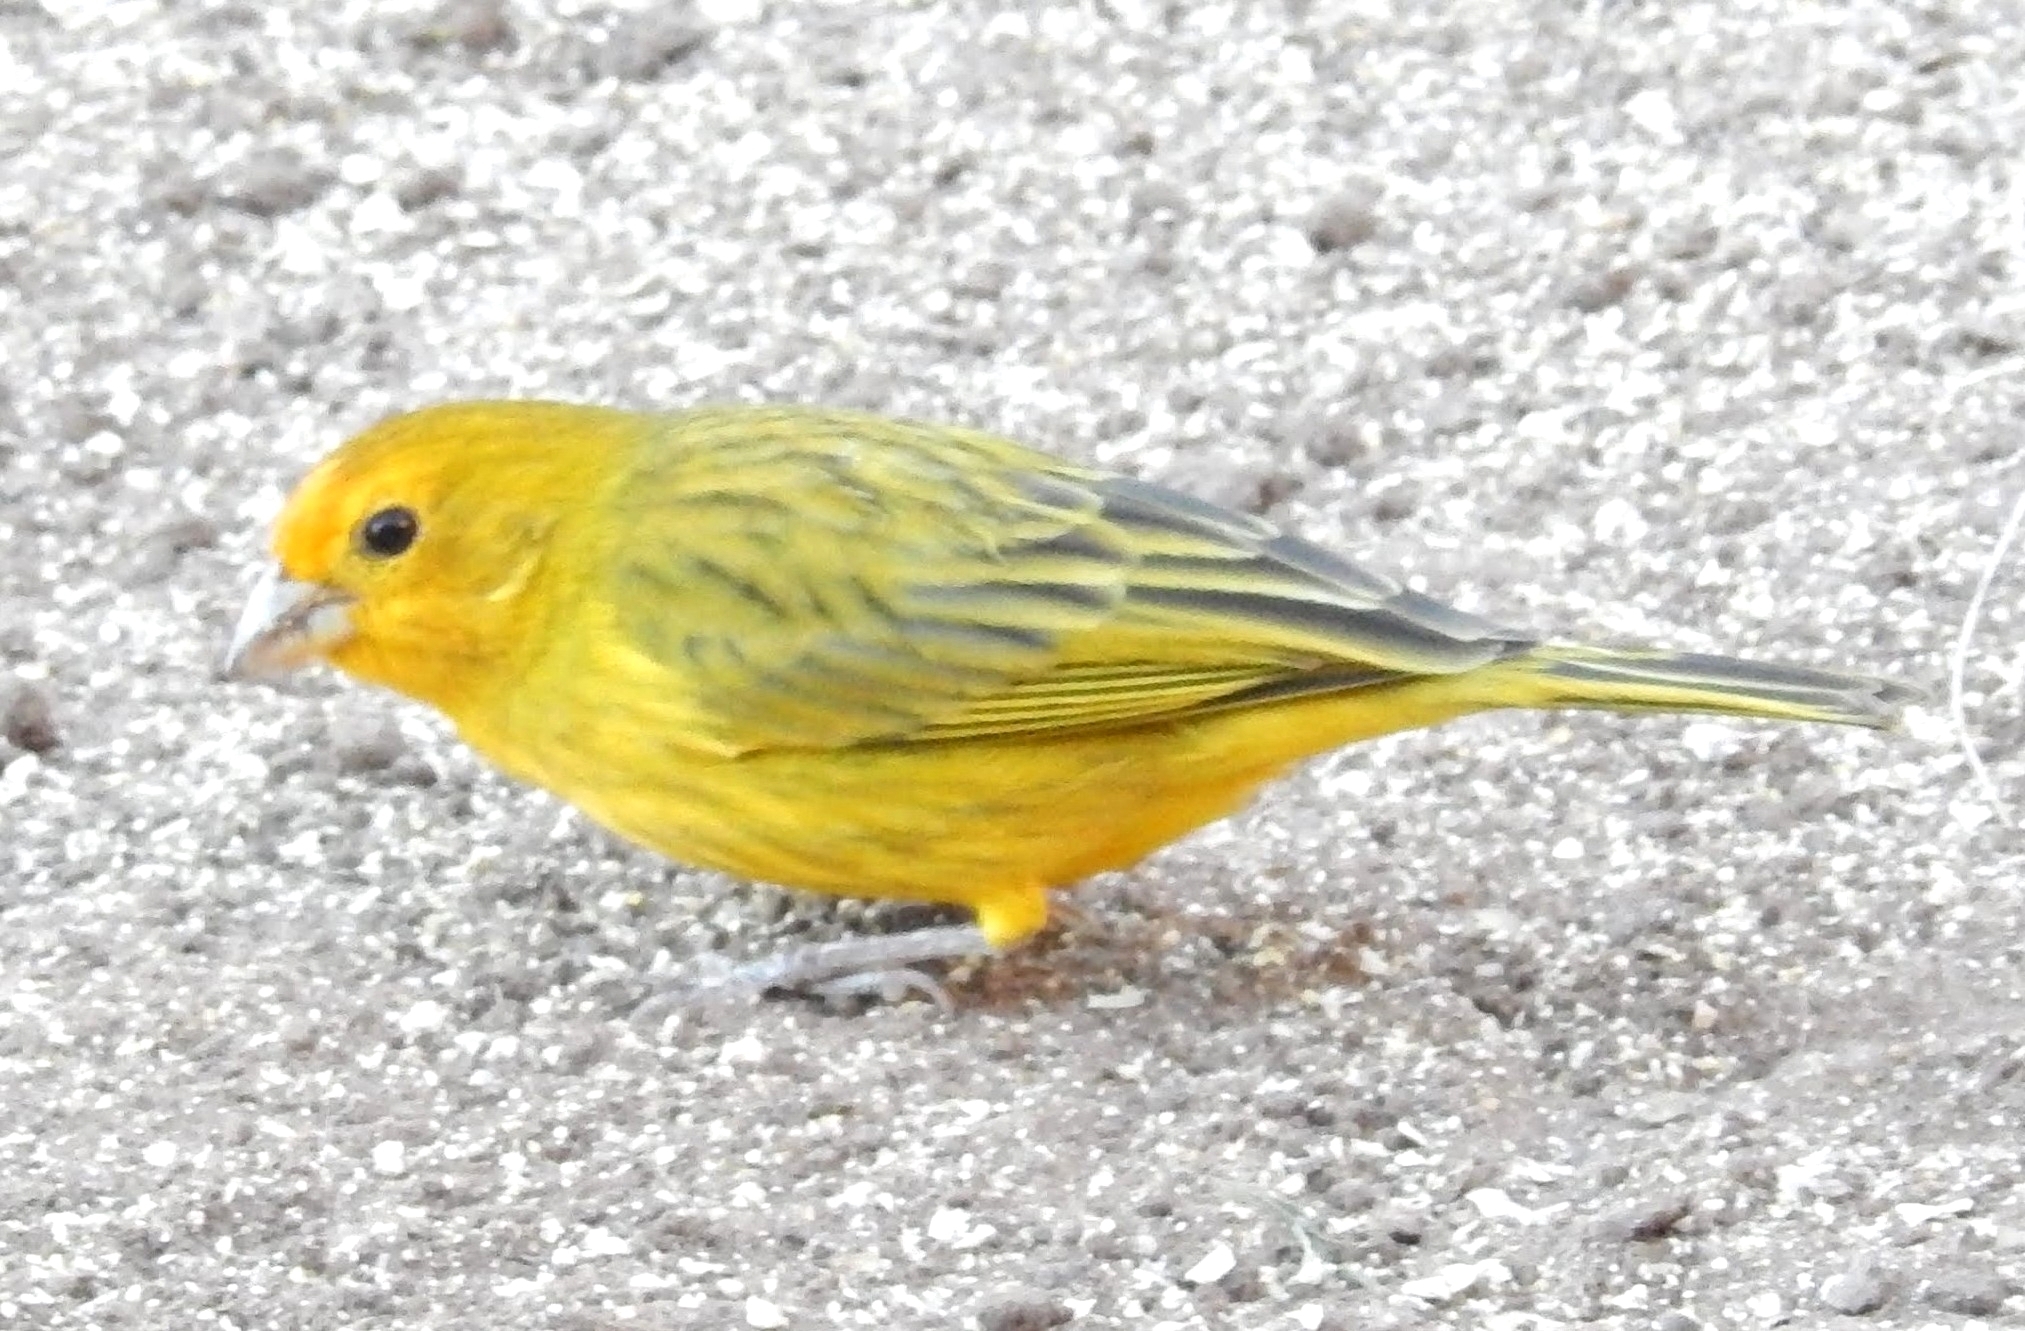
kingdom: Animalia
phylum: Chordata
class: Aves
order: Passeriformes
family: Thraupidae
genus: Sicalis
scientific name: Sicalis flaveola
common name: Saffron finch
